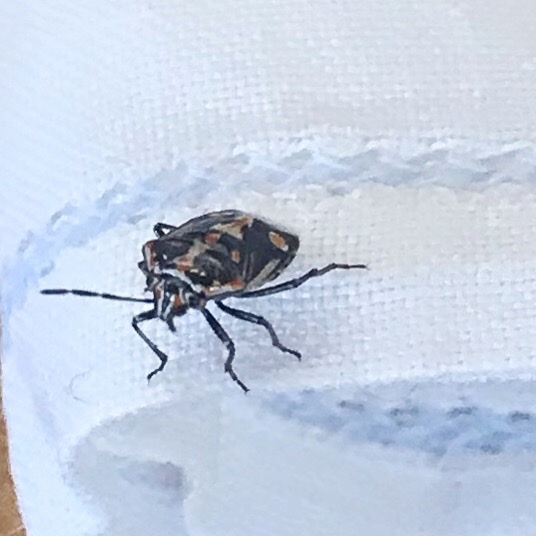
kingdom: Animalia
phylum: Arthropoda
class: Insecta
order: Hemiptera
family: Pentatomidae
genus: Bagrada
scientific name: Bagrada hilaris
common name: Bagrada bug
